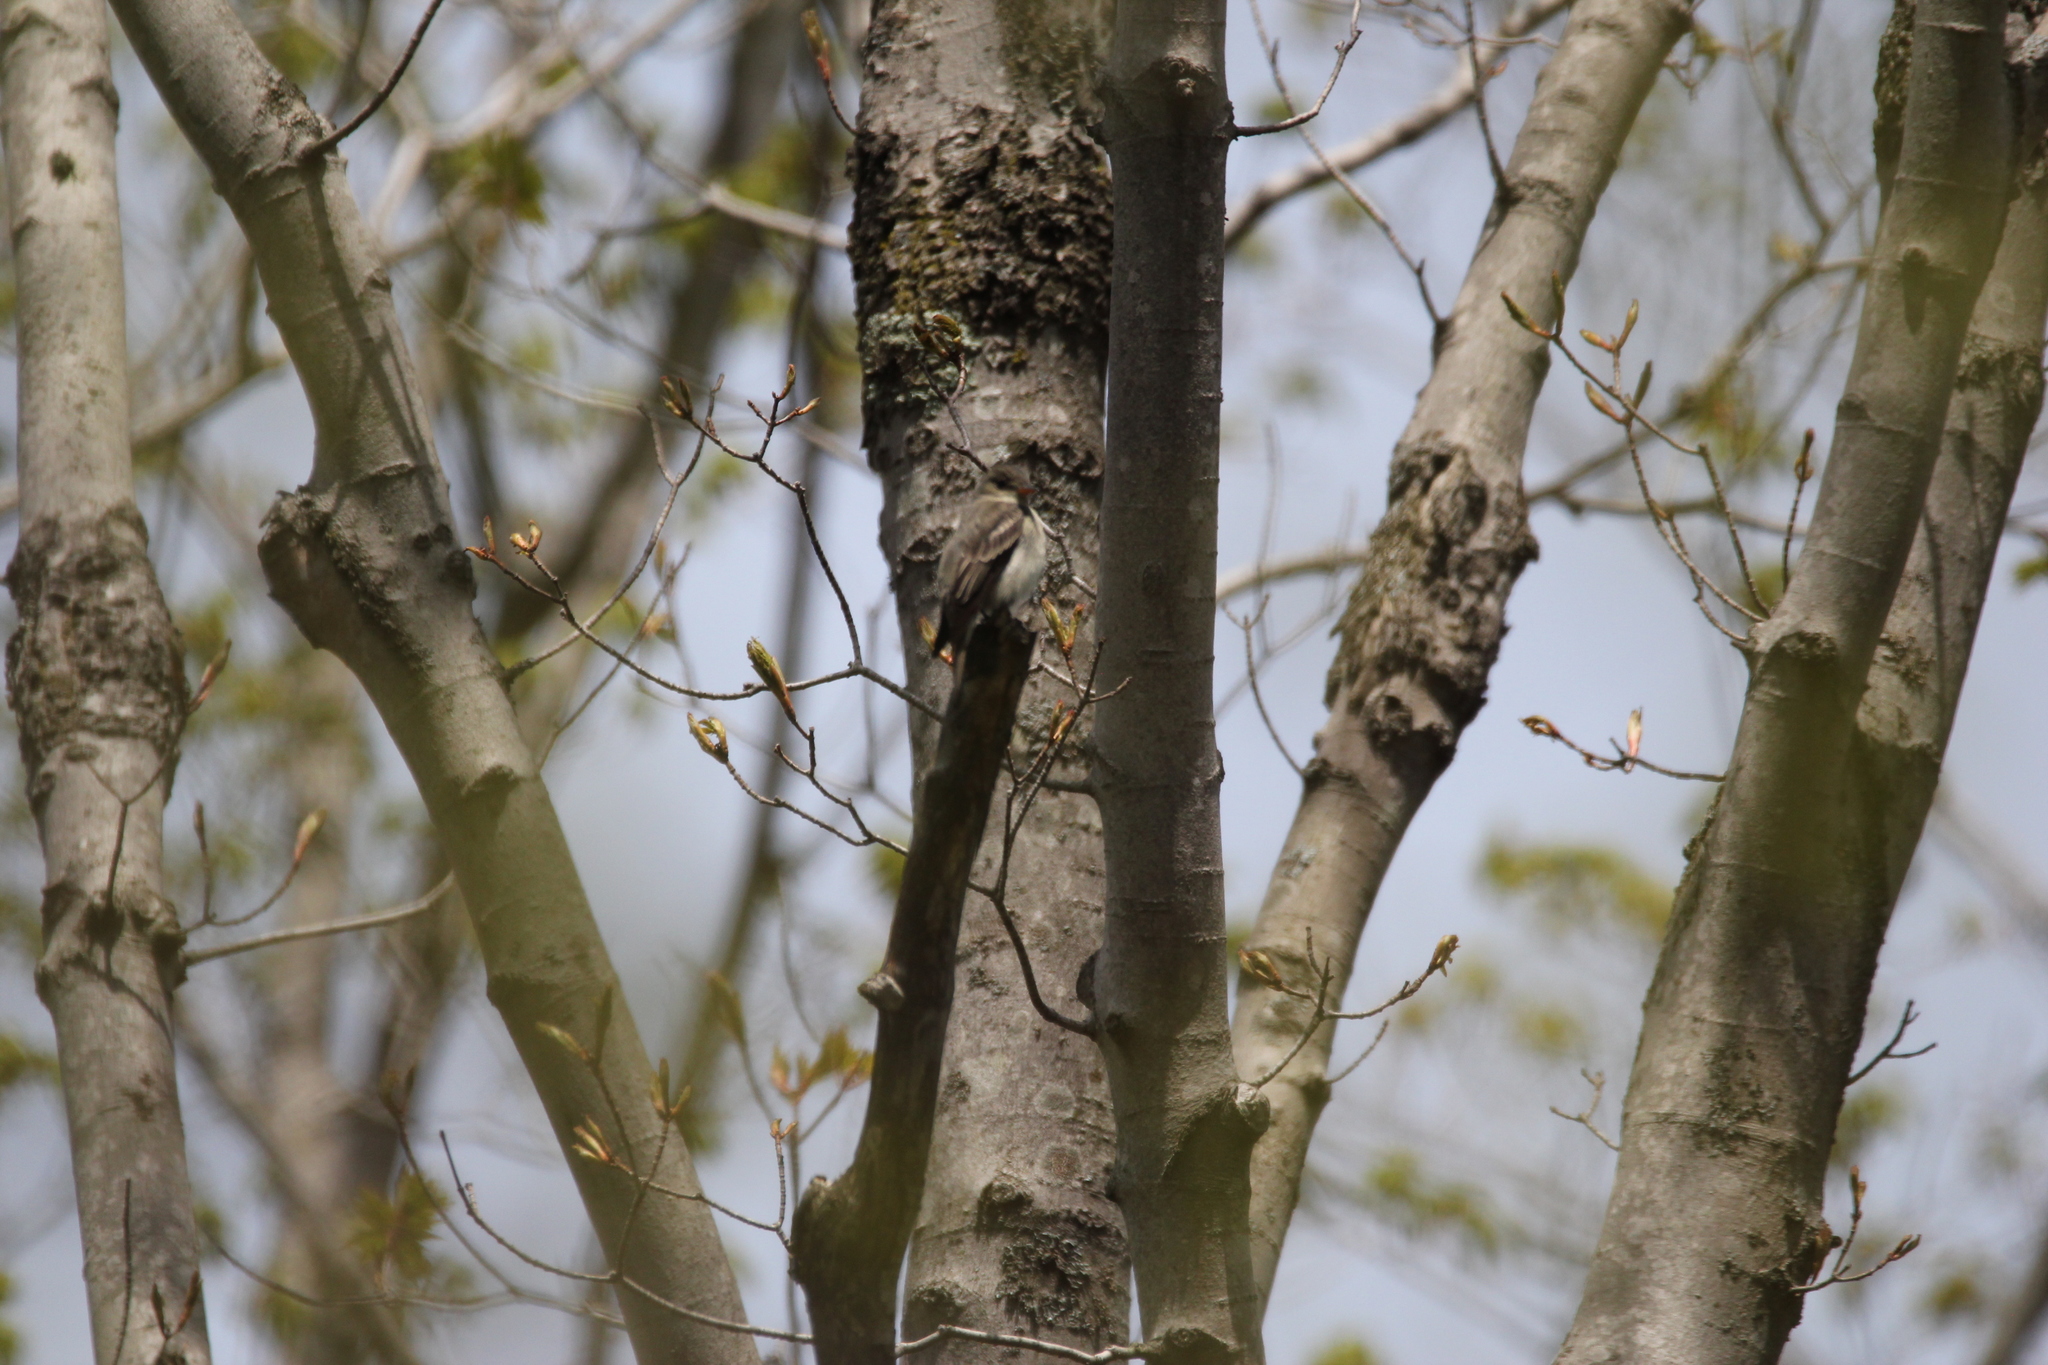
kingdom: Animalia
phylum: Chordata
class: Aves
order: Passeriformes
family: Tyrannidae
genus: Contopus
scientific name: Contopus virens
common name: Eastern wood-pewee
